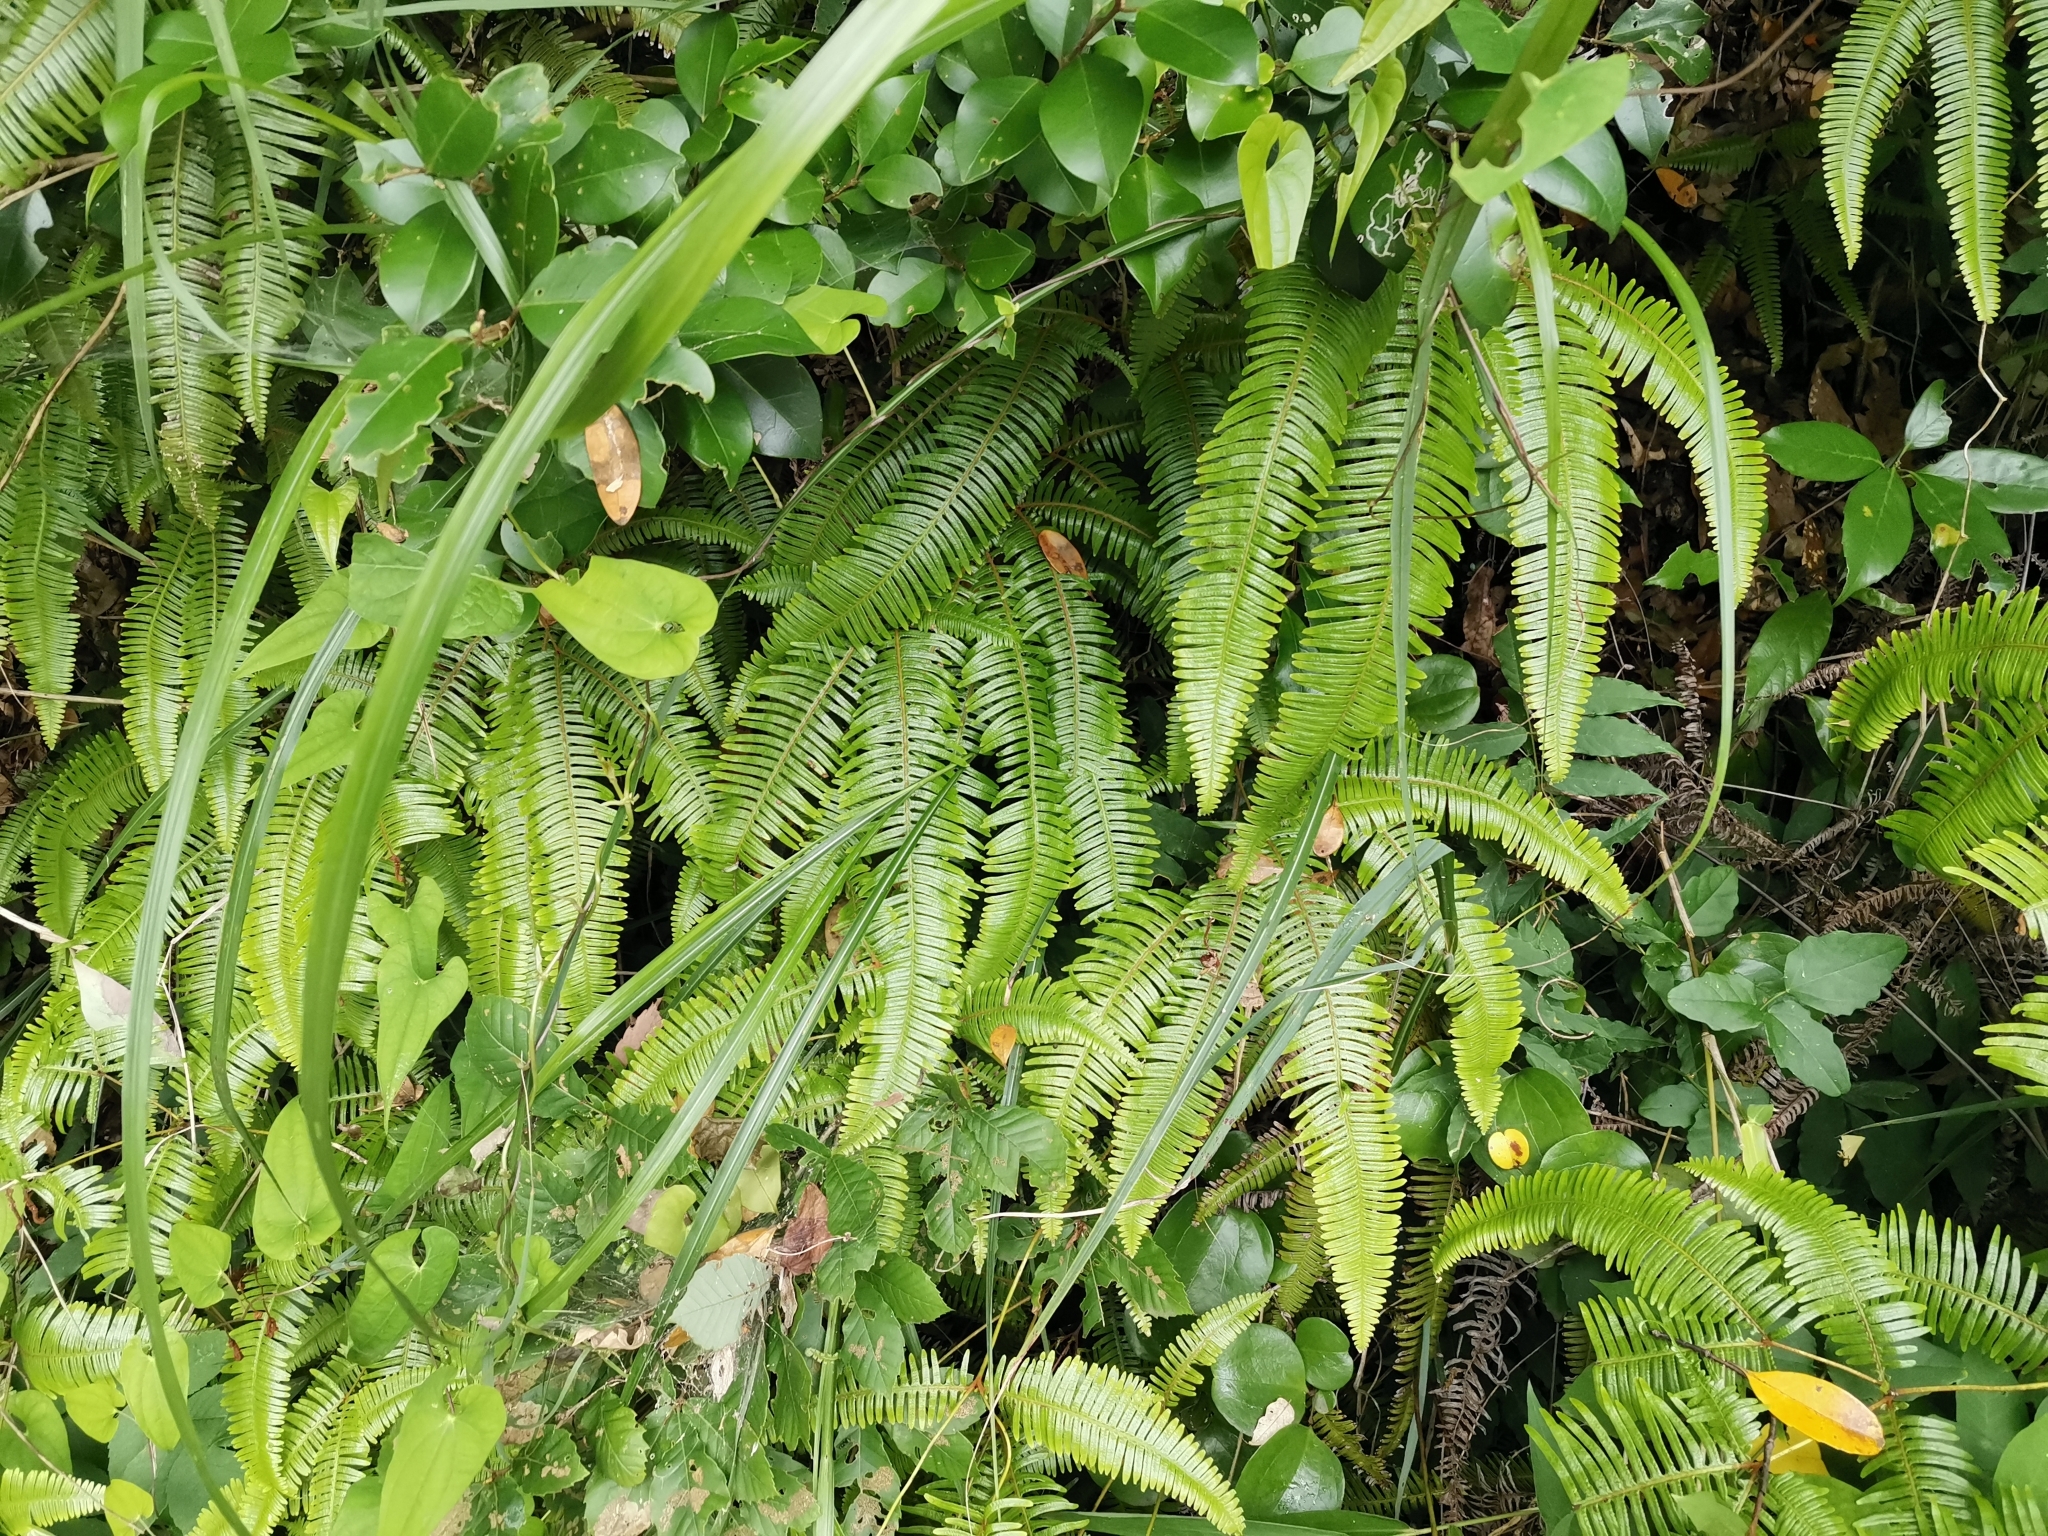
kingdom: Plantae
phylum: Tracheophyta
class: Polypodiopsida
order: Gleicheniales
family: Gleicheniaceae
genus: Dicranopteris
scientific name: Dicranopteris linearis
